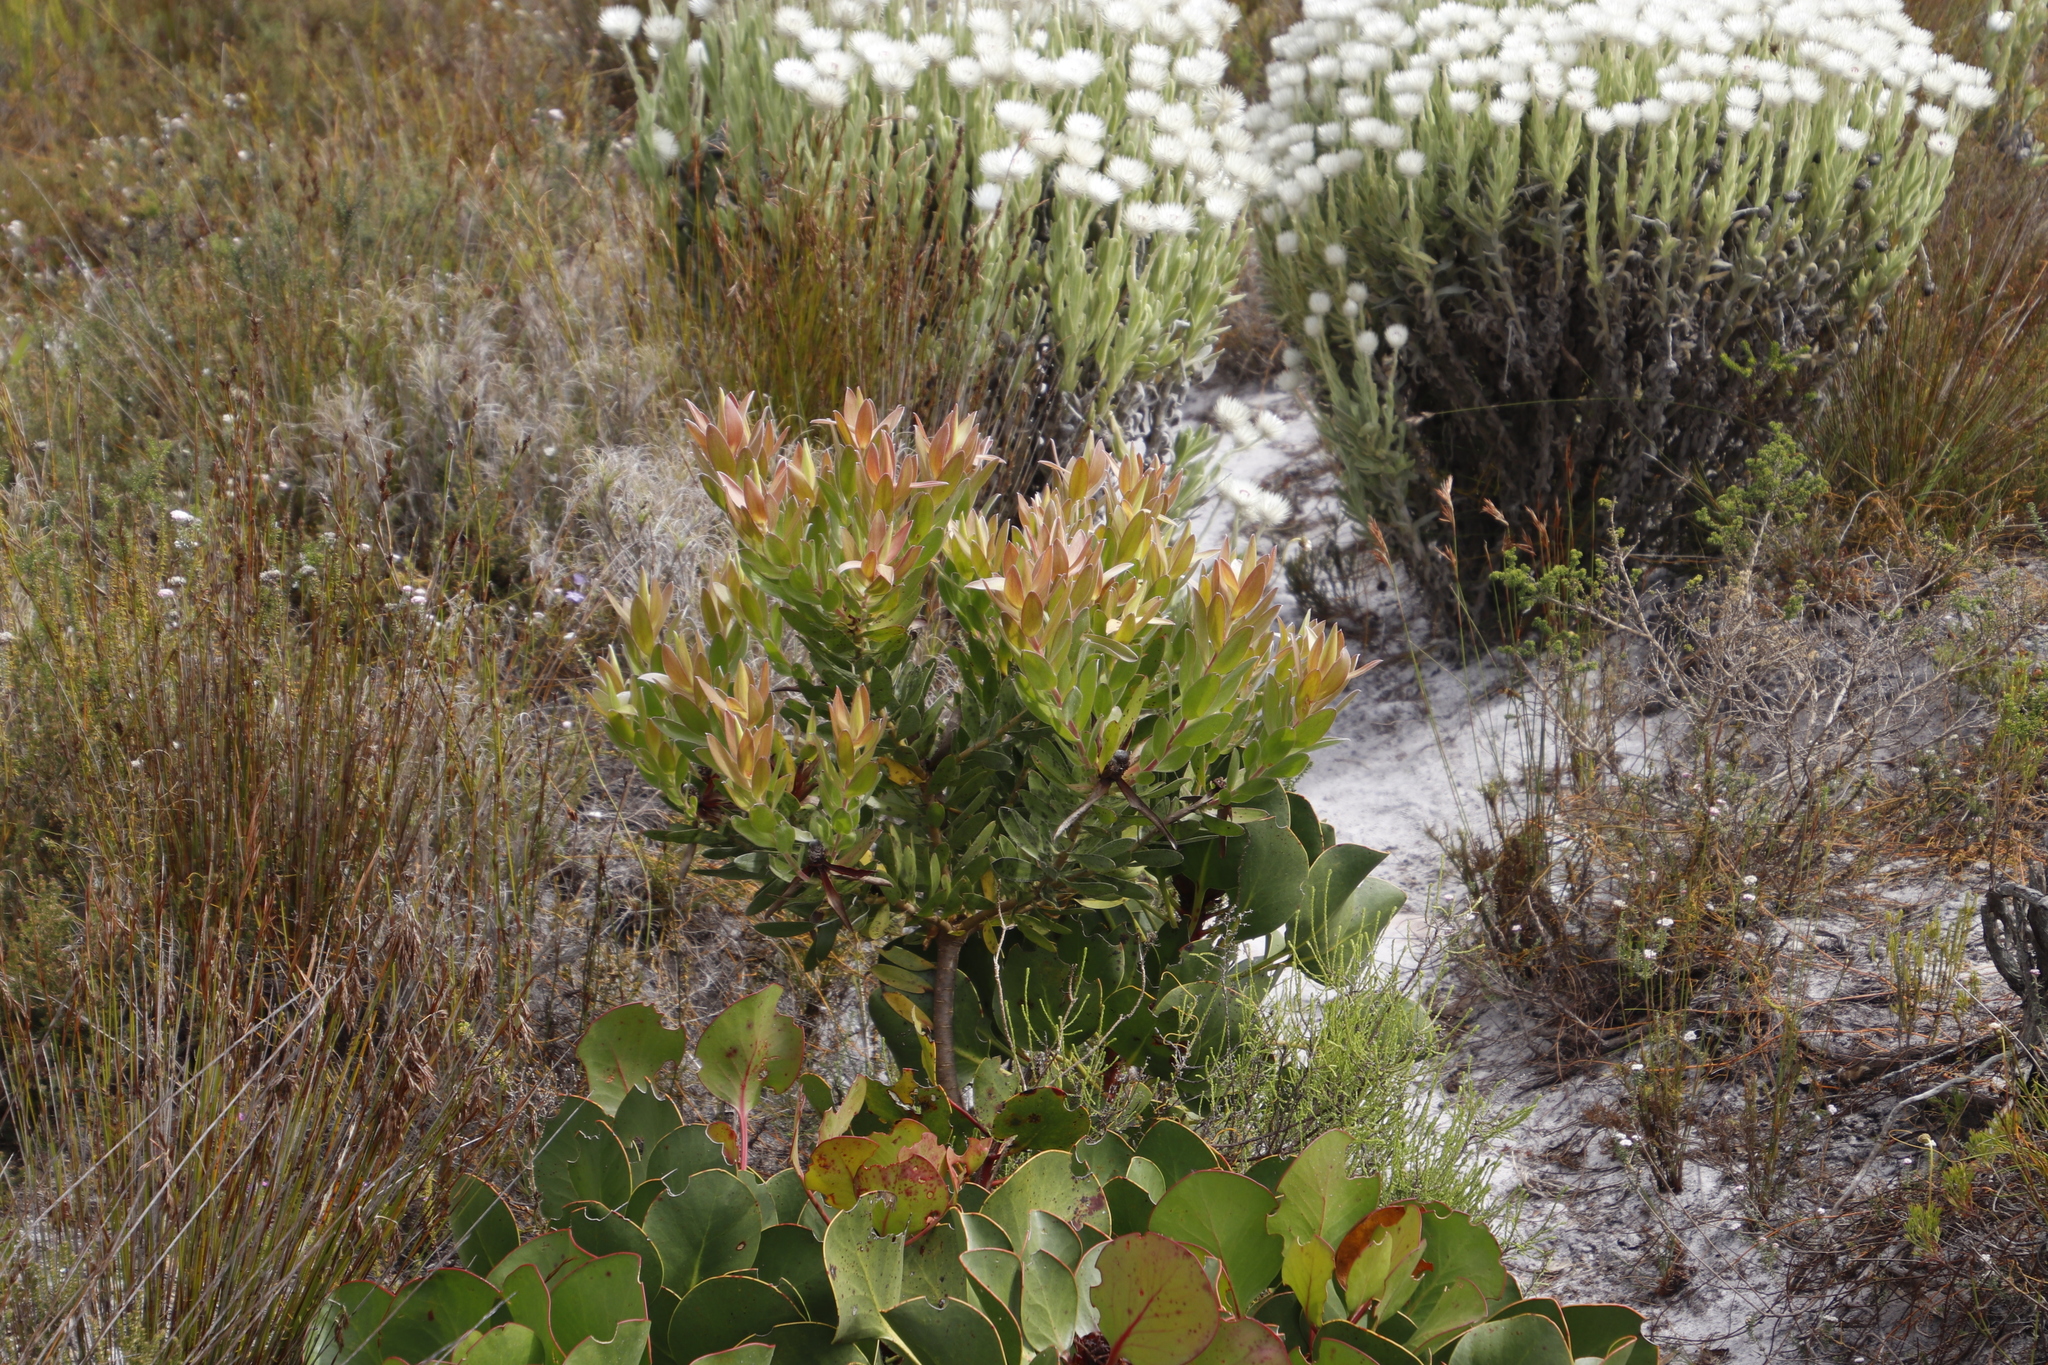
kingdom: Plantae
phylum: Tracheophyta
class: Magnoliopsida
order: Proteales
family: Proteaceae
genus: Leucadendron
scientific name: Leucadendron laureolum
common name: Golden sunshinebush
